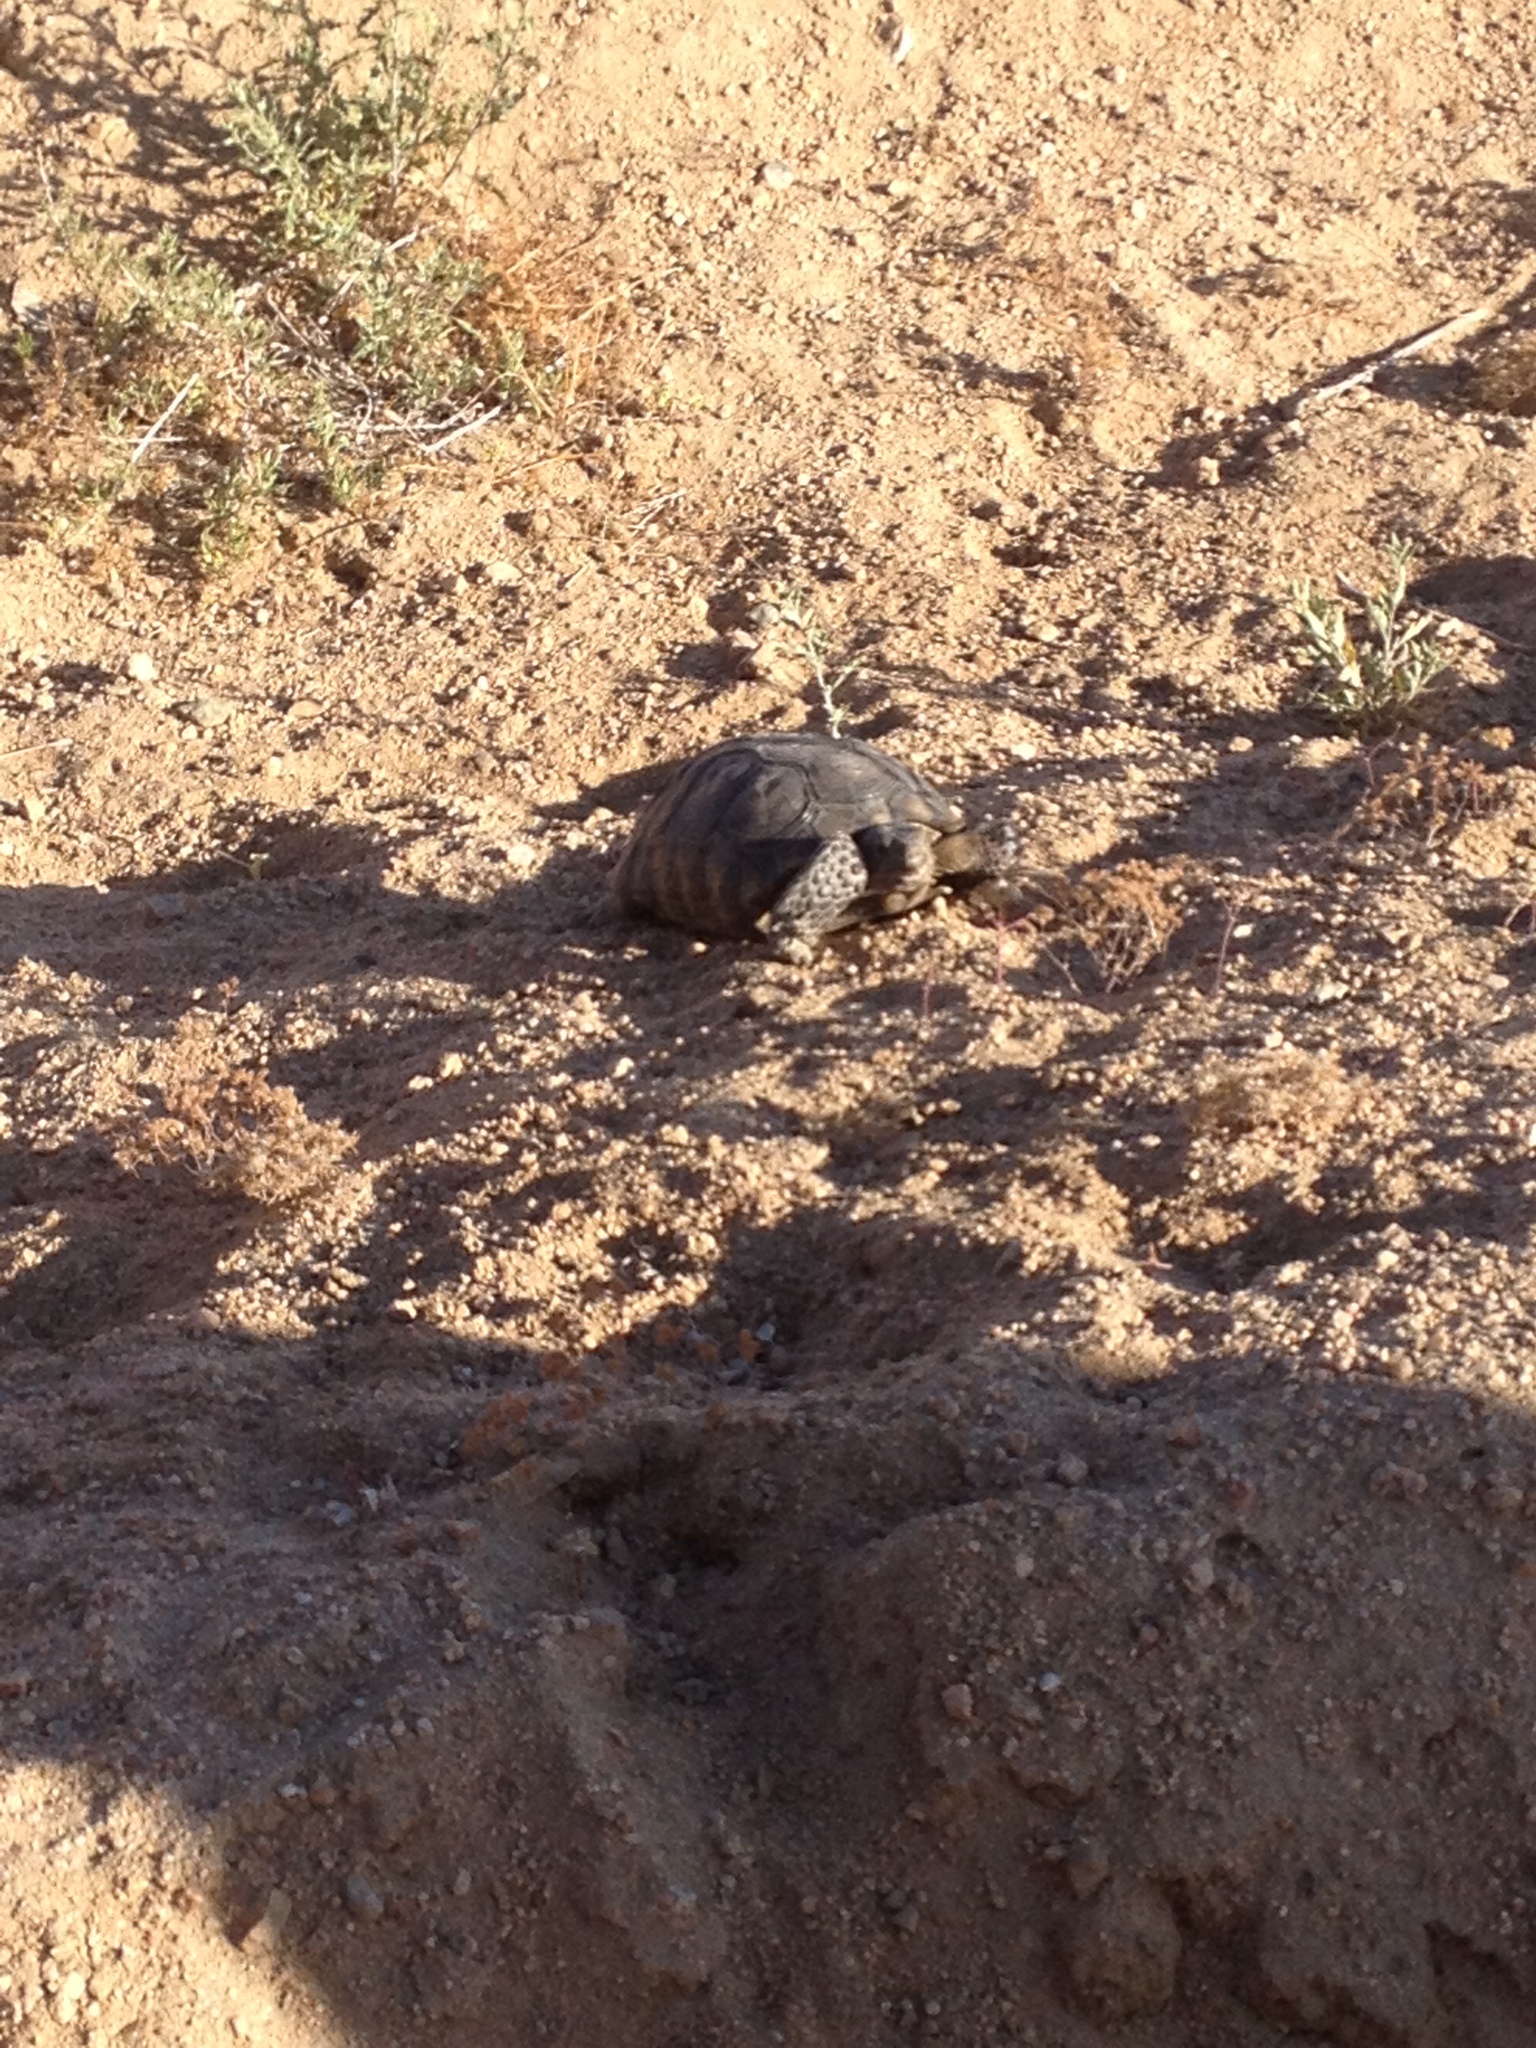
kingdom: Animalia
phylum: Chordata
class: Testudines
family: Testudinidae
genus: Gopherus
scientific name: Gopherus agassizii
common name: Mojave desert tortoise
